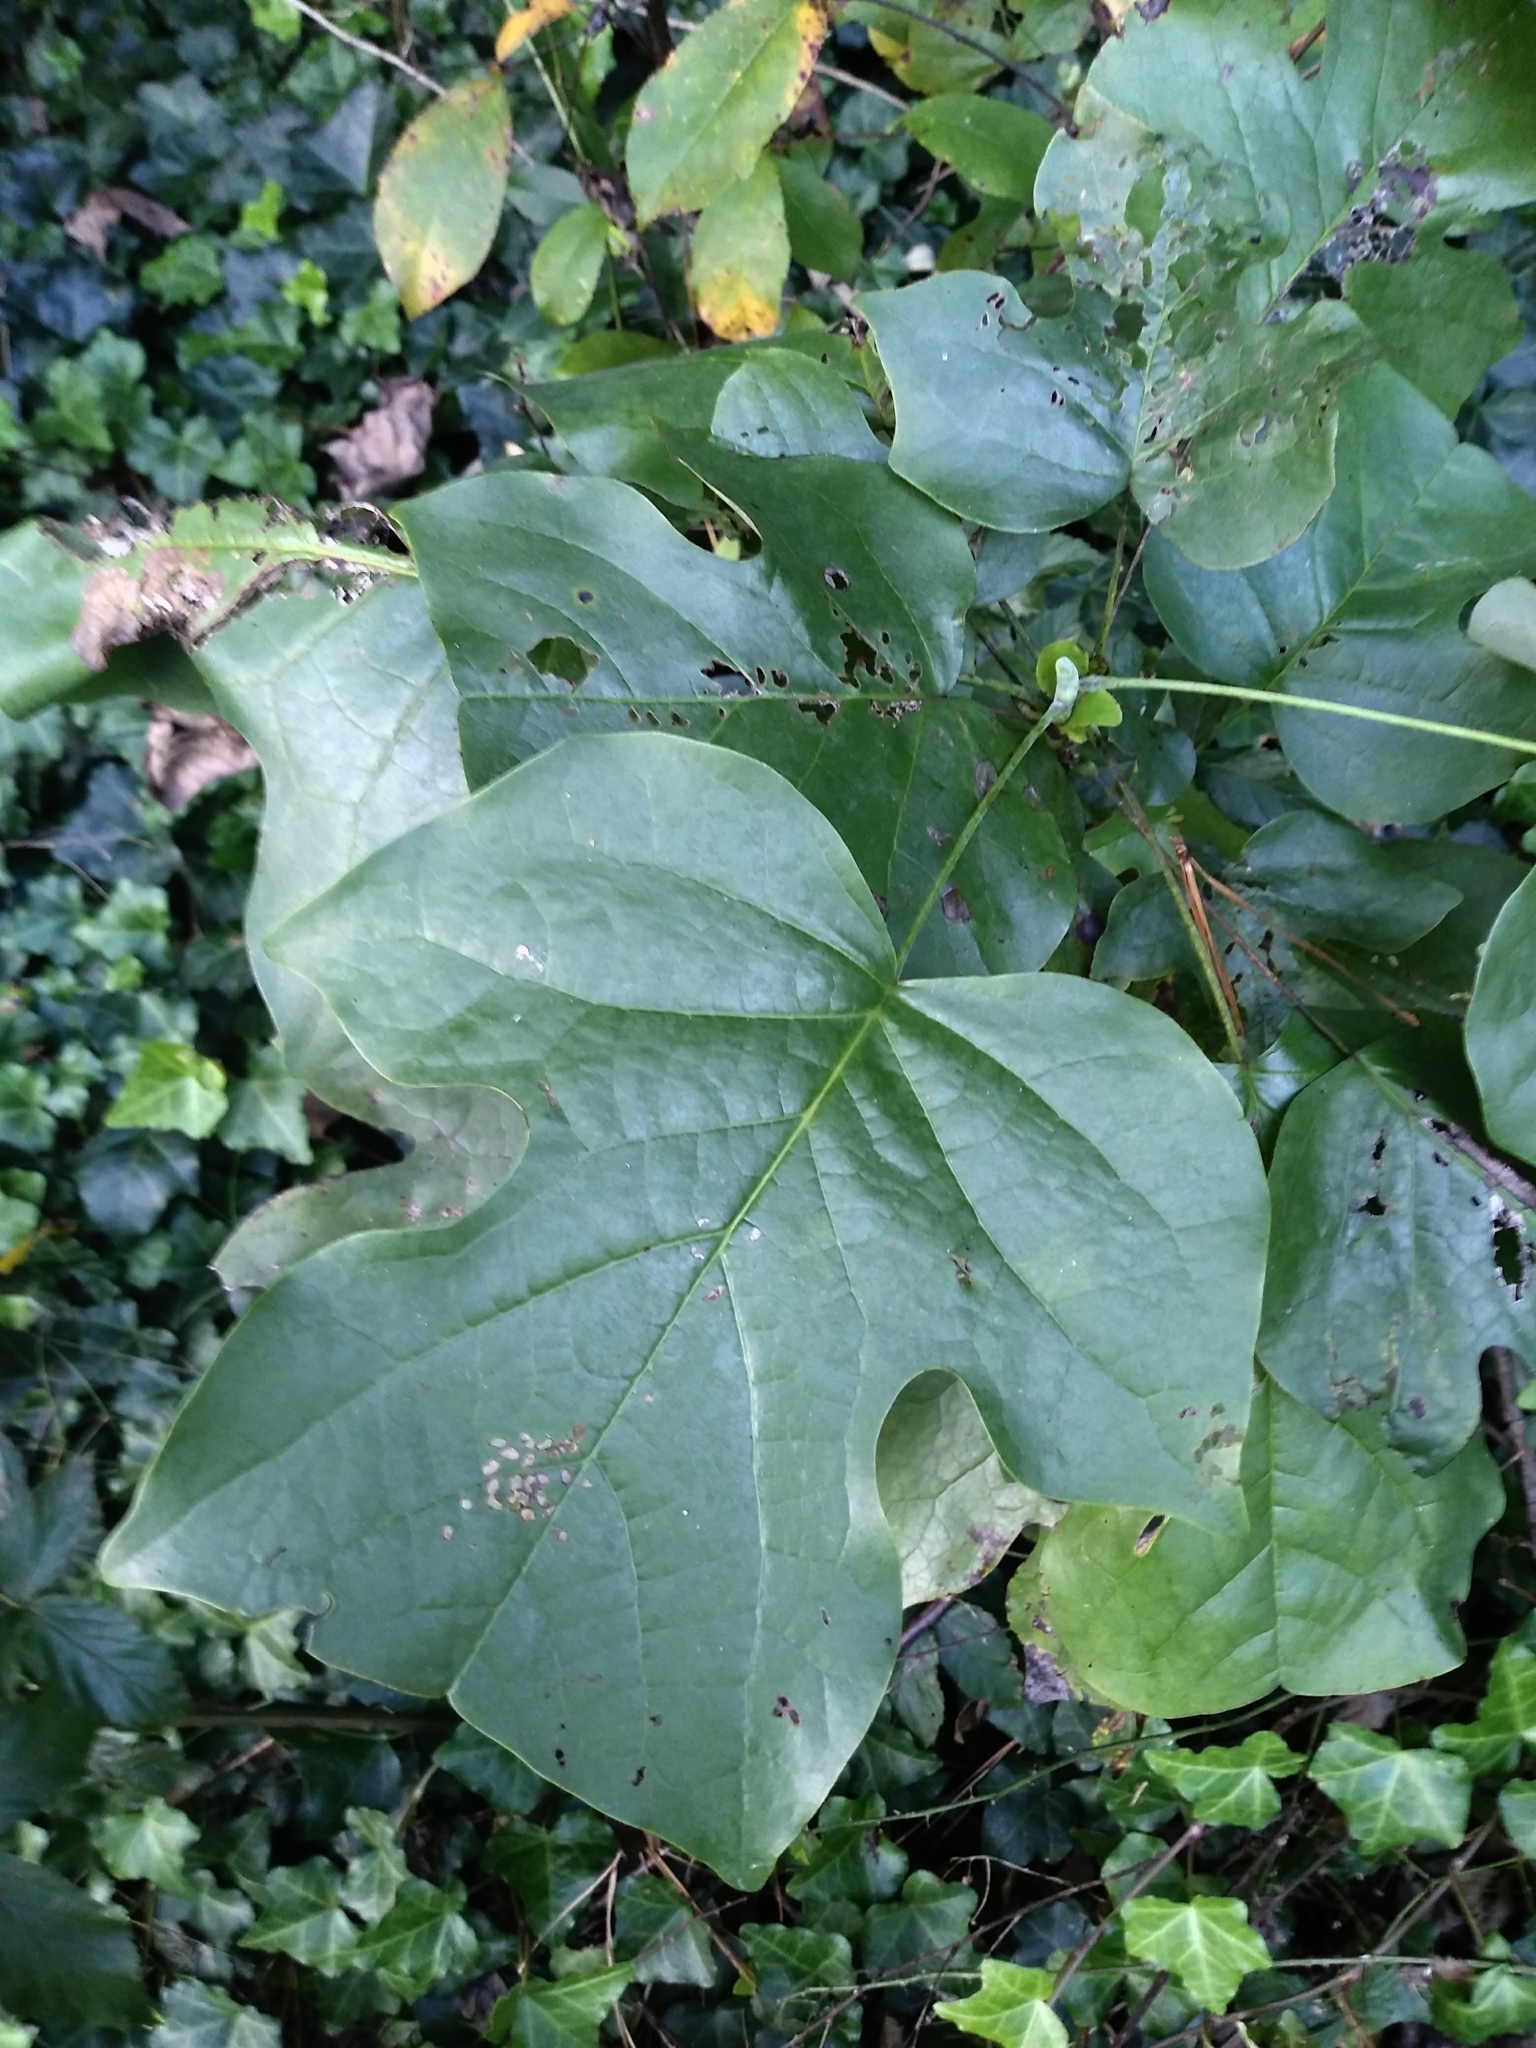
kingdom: Plantae
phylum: Tracheophyta
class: Magnoliopsida
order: Magnoliales
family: Magnoliaceae
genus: Liriodendron
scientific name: Liriodendron tulipifera
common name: Tulip tree
